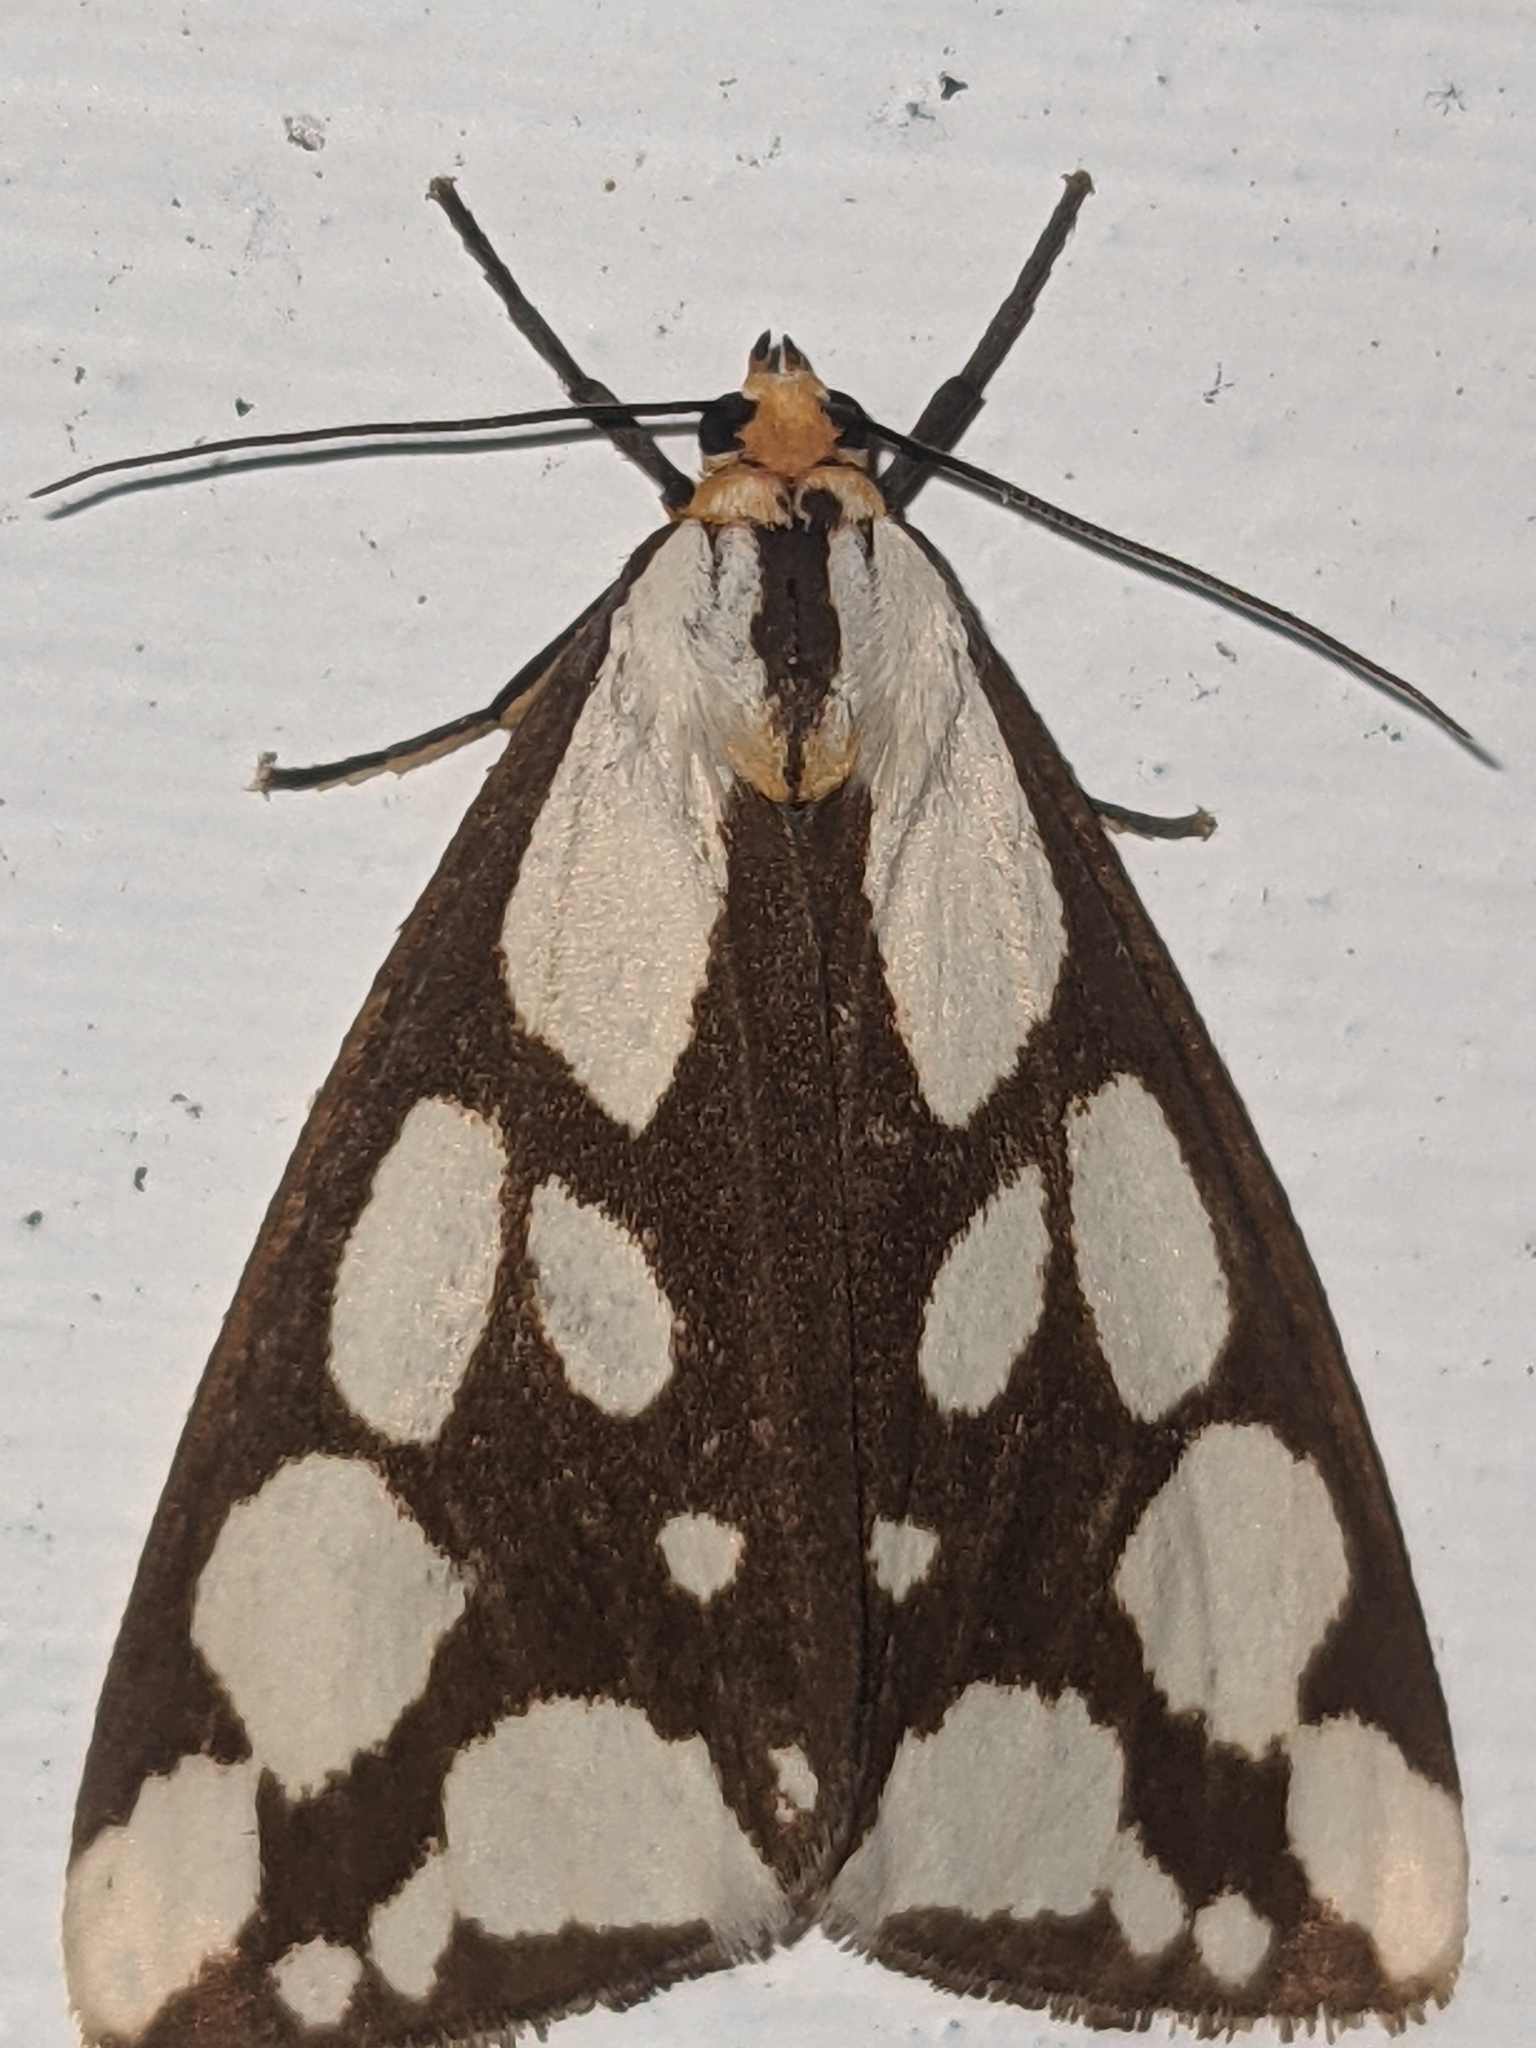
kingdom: Animalia
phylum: Arthropoda
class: Insecta
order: Lepidoptera
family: Erebidae
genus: Haploa
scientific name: Haploa confusa
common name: Confused haploa moth
